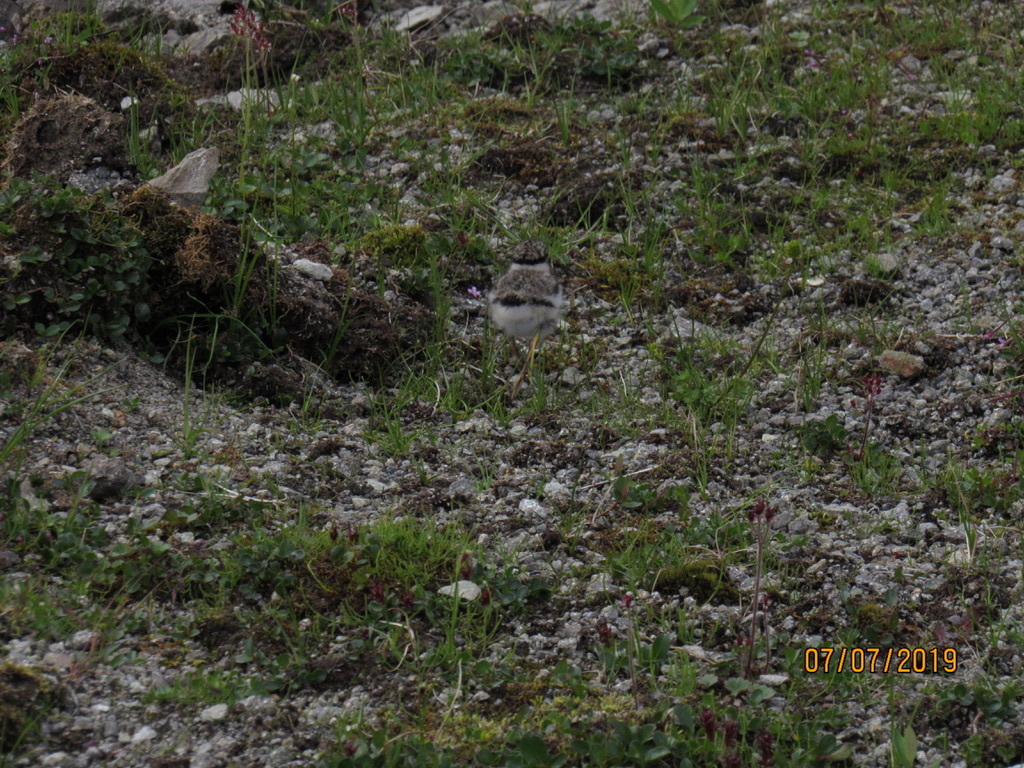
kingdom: Animalia
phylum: Chordata
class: Aves
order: Charadriiformes
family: Charadriidae
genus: Charadrius
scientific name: Charadrius semipalmatus
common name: Semipalmated plover
